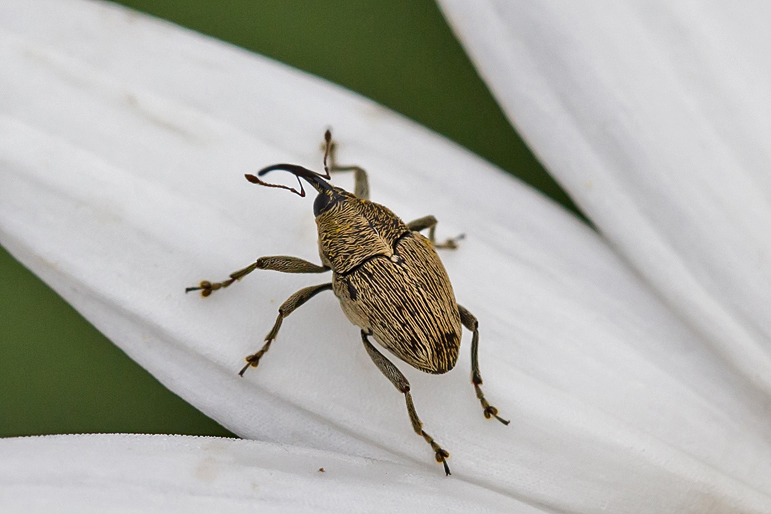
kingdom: Animalia
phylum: Arthropoda
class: Insecta
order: Coleoptera
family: Curculionidae
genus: Geraeus
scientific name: Geraeus
